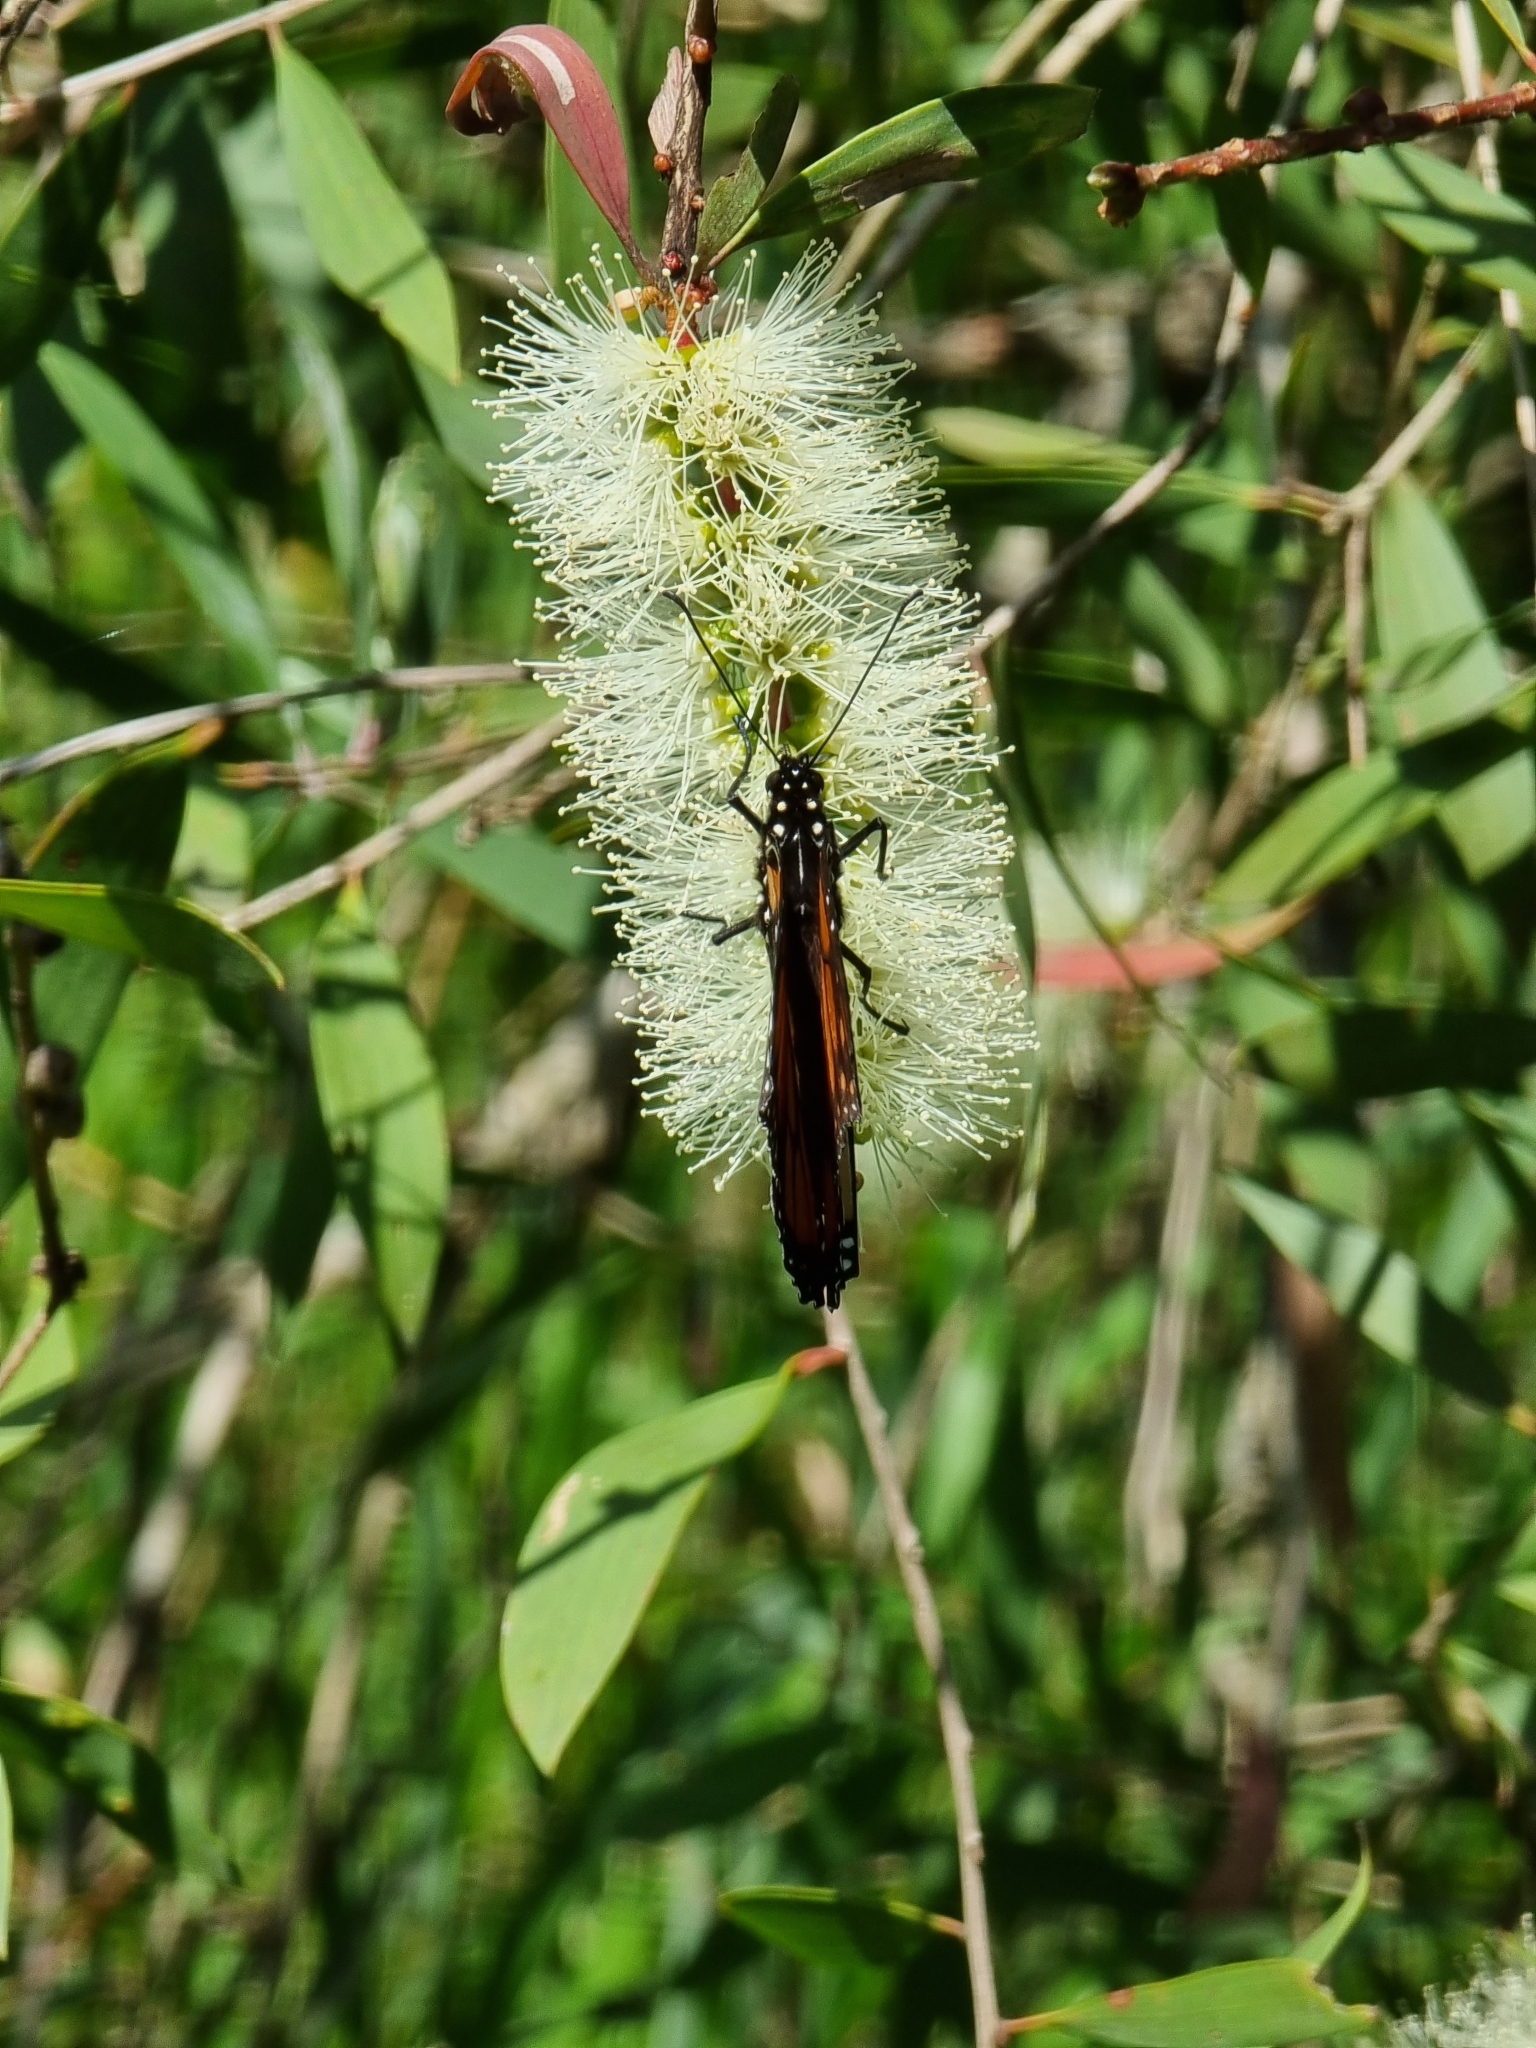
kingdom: Animalia
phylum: Arthropoda
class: Insecta
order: Lepidoptera
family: Nymphalidae
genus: Danaus
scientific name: Danaus plexippus
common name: Monarch
